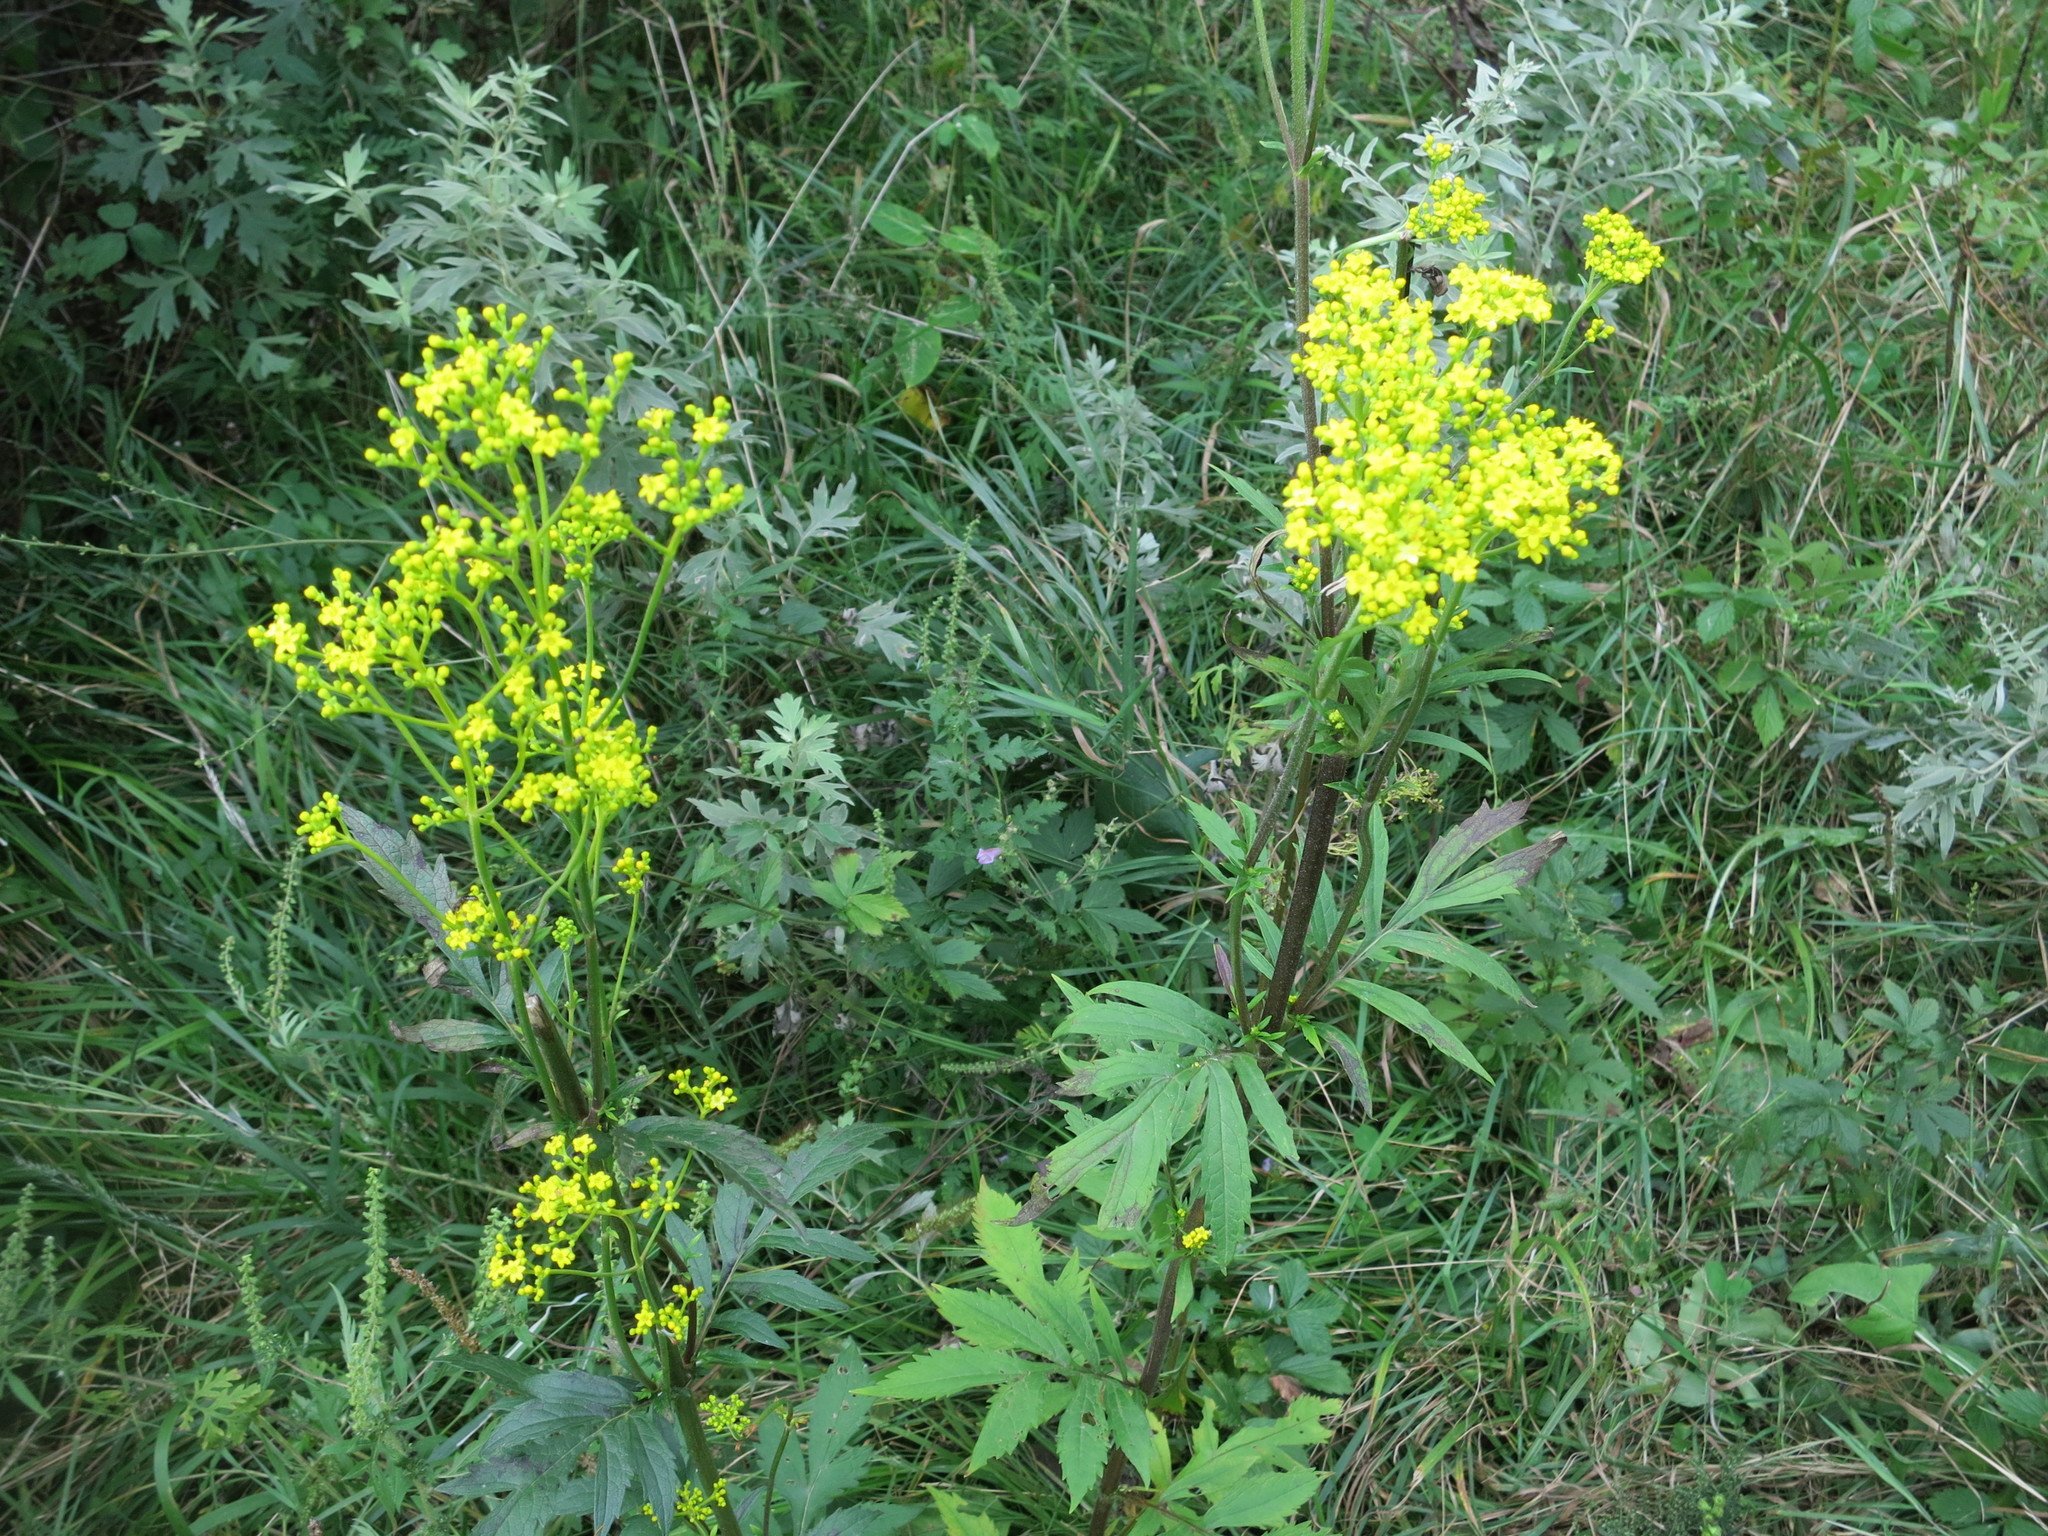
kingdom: Plantae
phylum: Tracheophyta
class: Magnoliopsida
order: Dipsacales
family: Caprifoliaceae
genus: Patrinia
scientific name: Patrinia scabiosifolia
